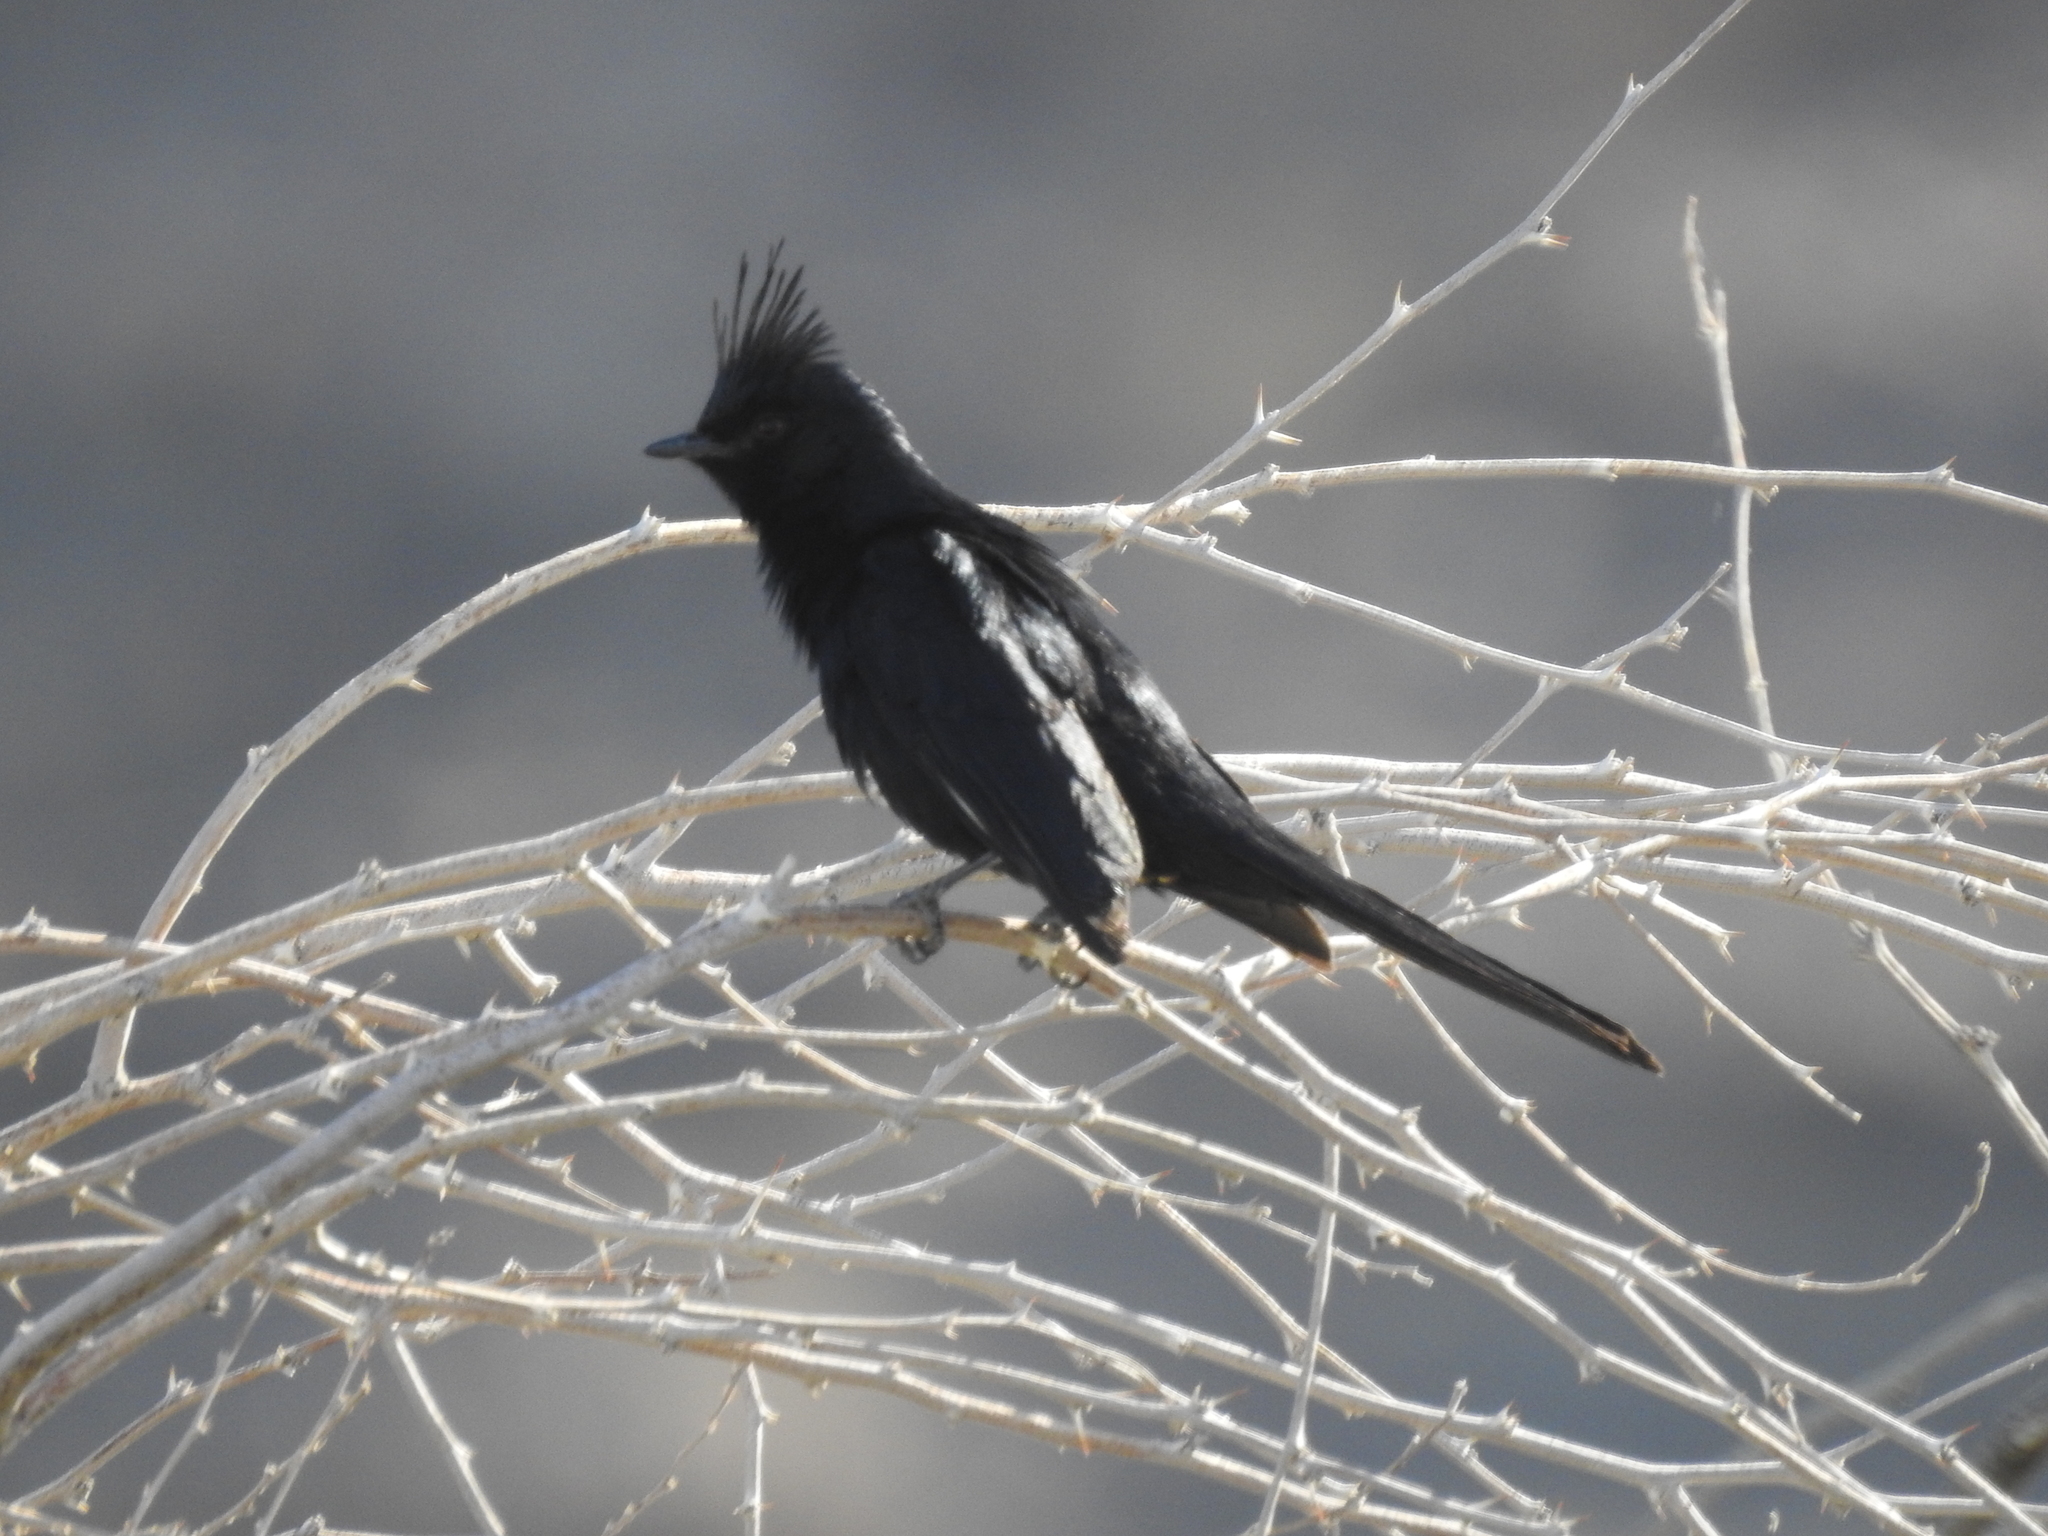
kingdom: Animalia
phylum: Chordata
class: Aves
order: Passeriformes
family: Ptilogonatidae
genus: Phainopepla
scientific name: Phainopepla nitens
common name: Phainopepla
